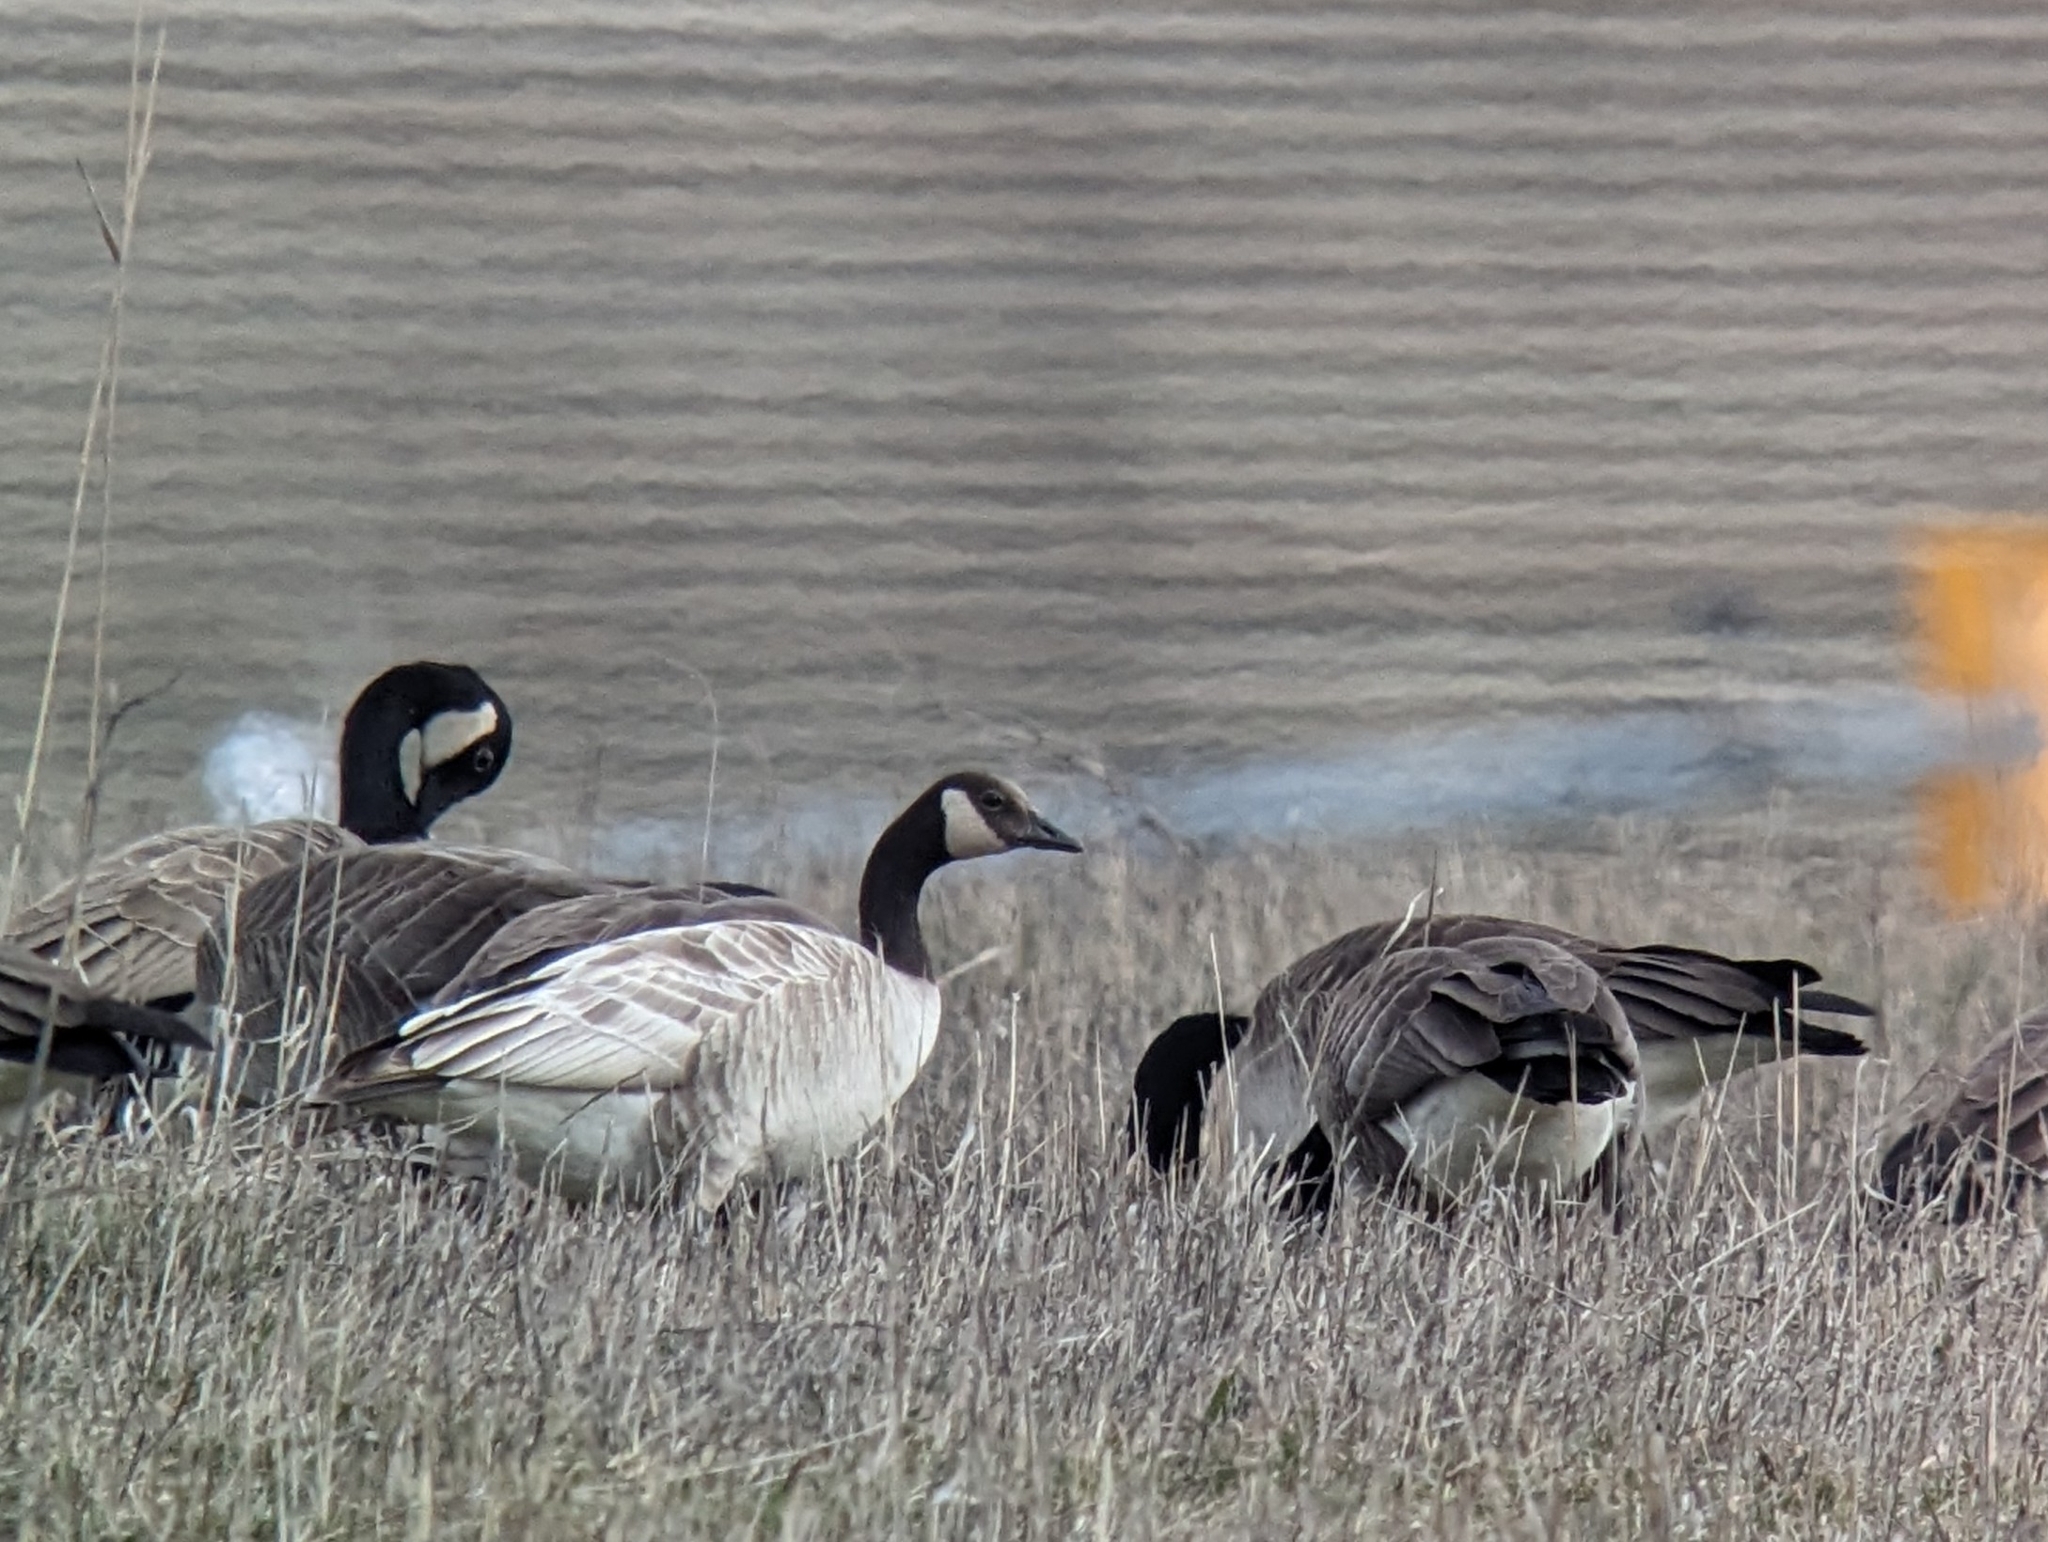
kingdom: Animalia
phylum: Chordata
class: Aves
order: Anseriformes
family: Anatidae
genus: Branta
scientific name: Branta canadensis
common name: Canada goose
